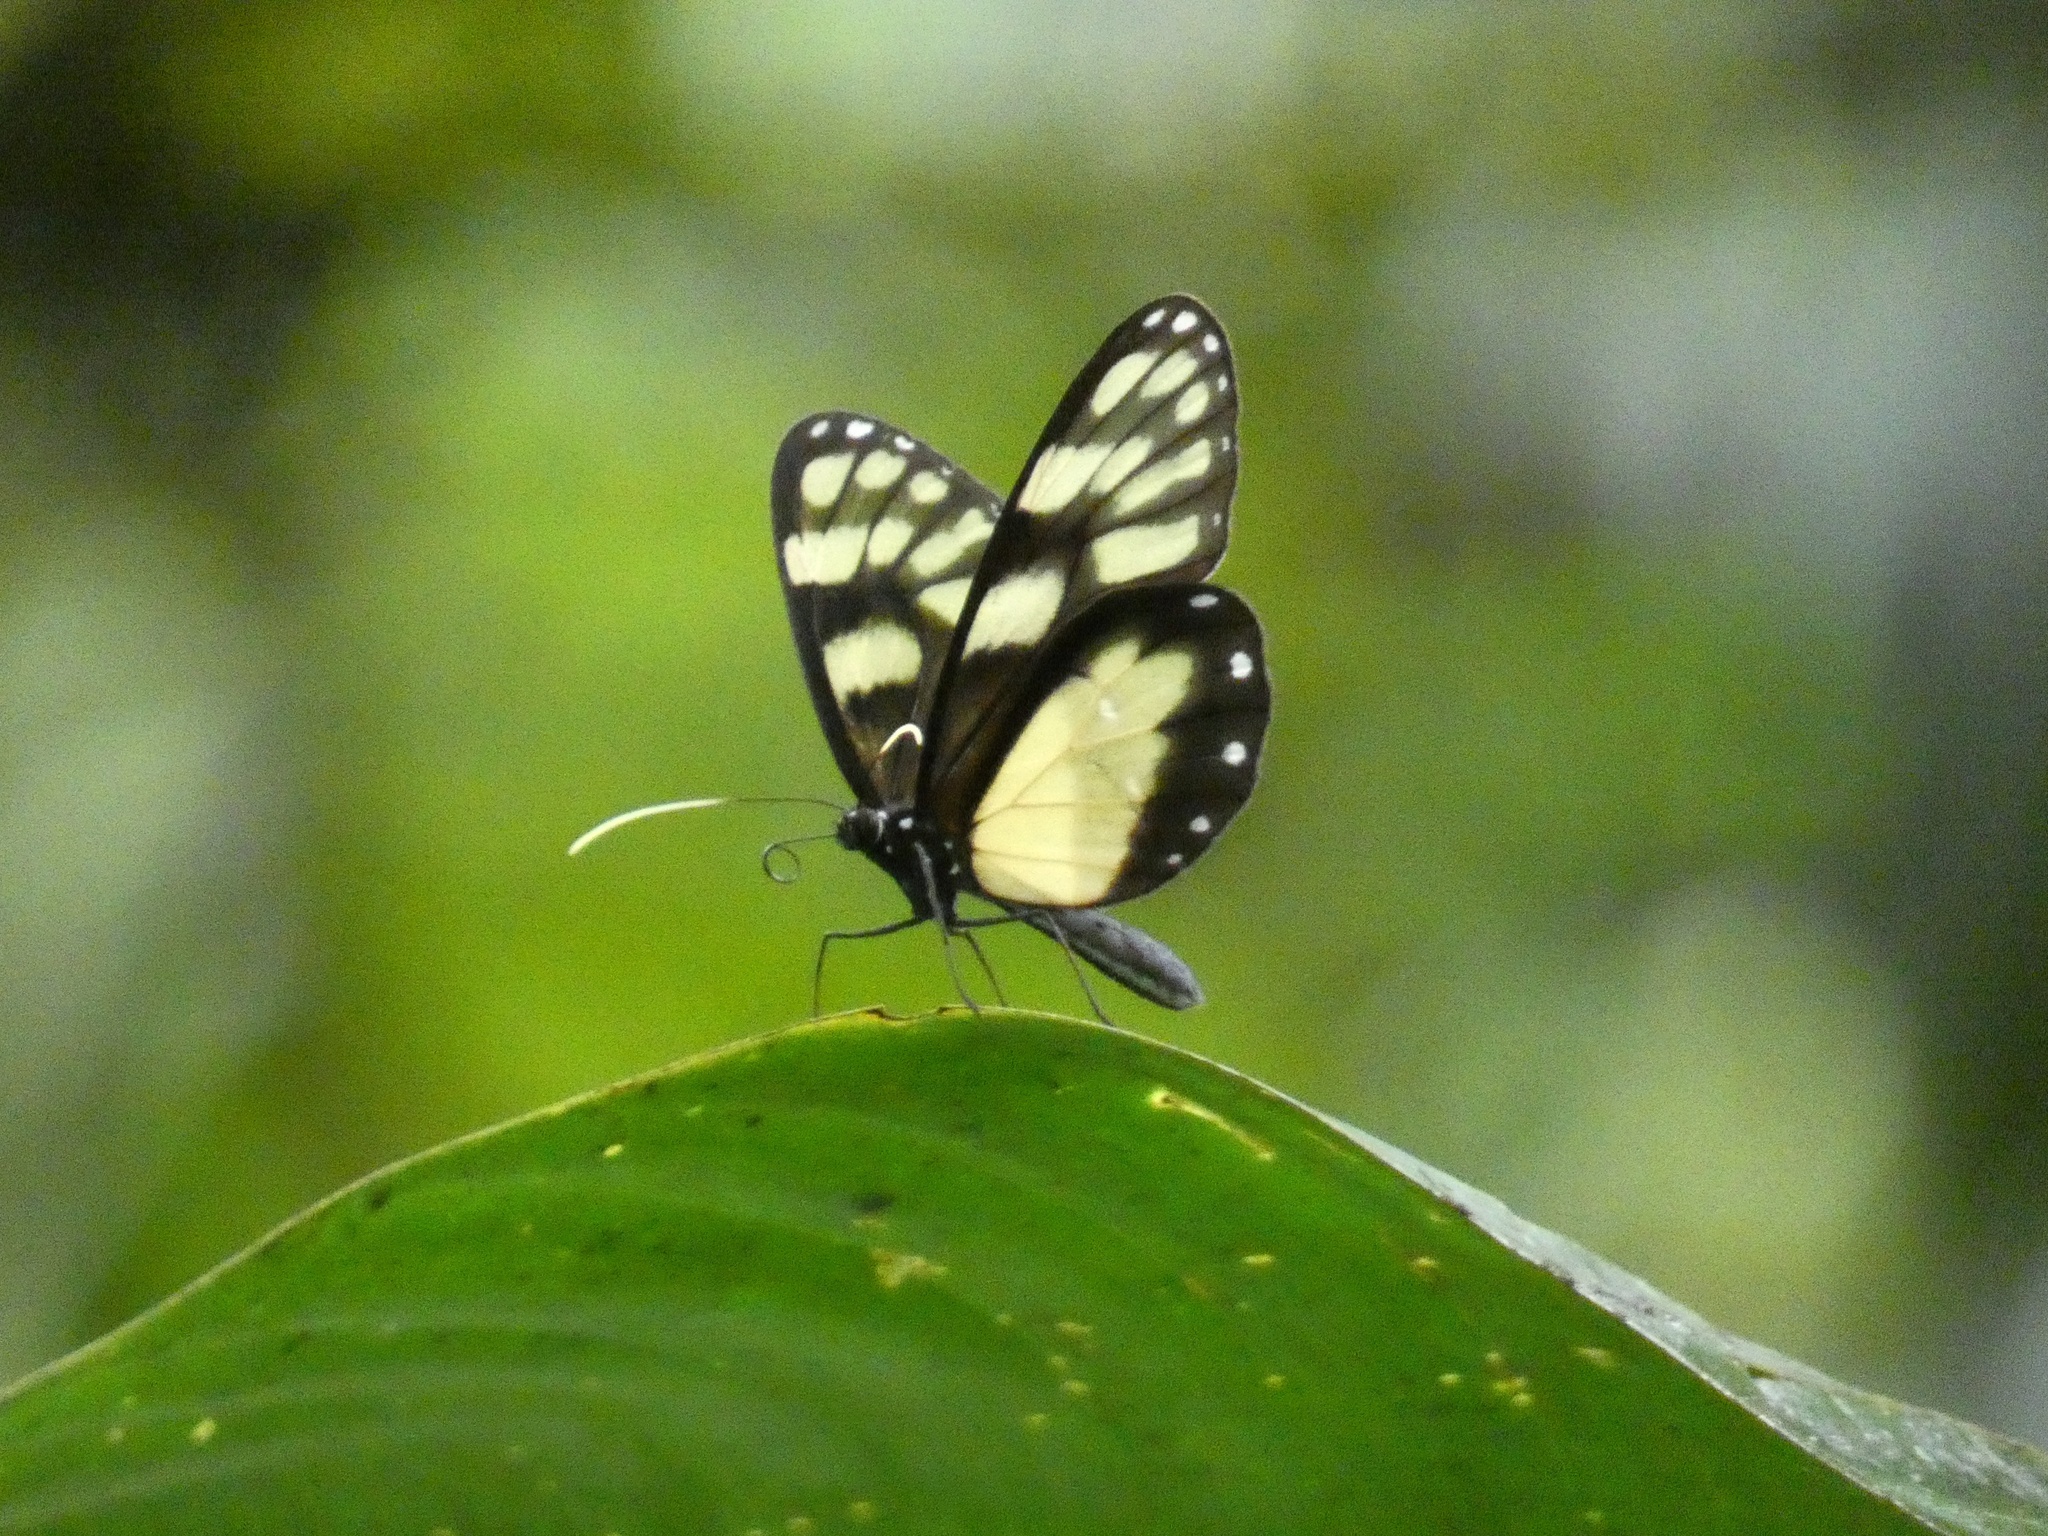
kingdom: Animalia
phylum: Arthropoda
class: Insecta
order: Lepidoptera
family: Nymphalidae
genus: Godyris
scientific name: Godyris zavaleta
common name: Zavaleta glasswing
